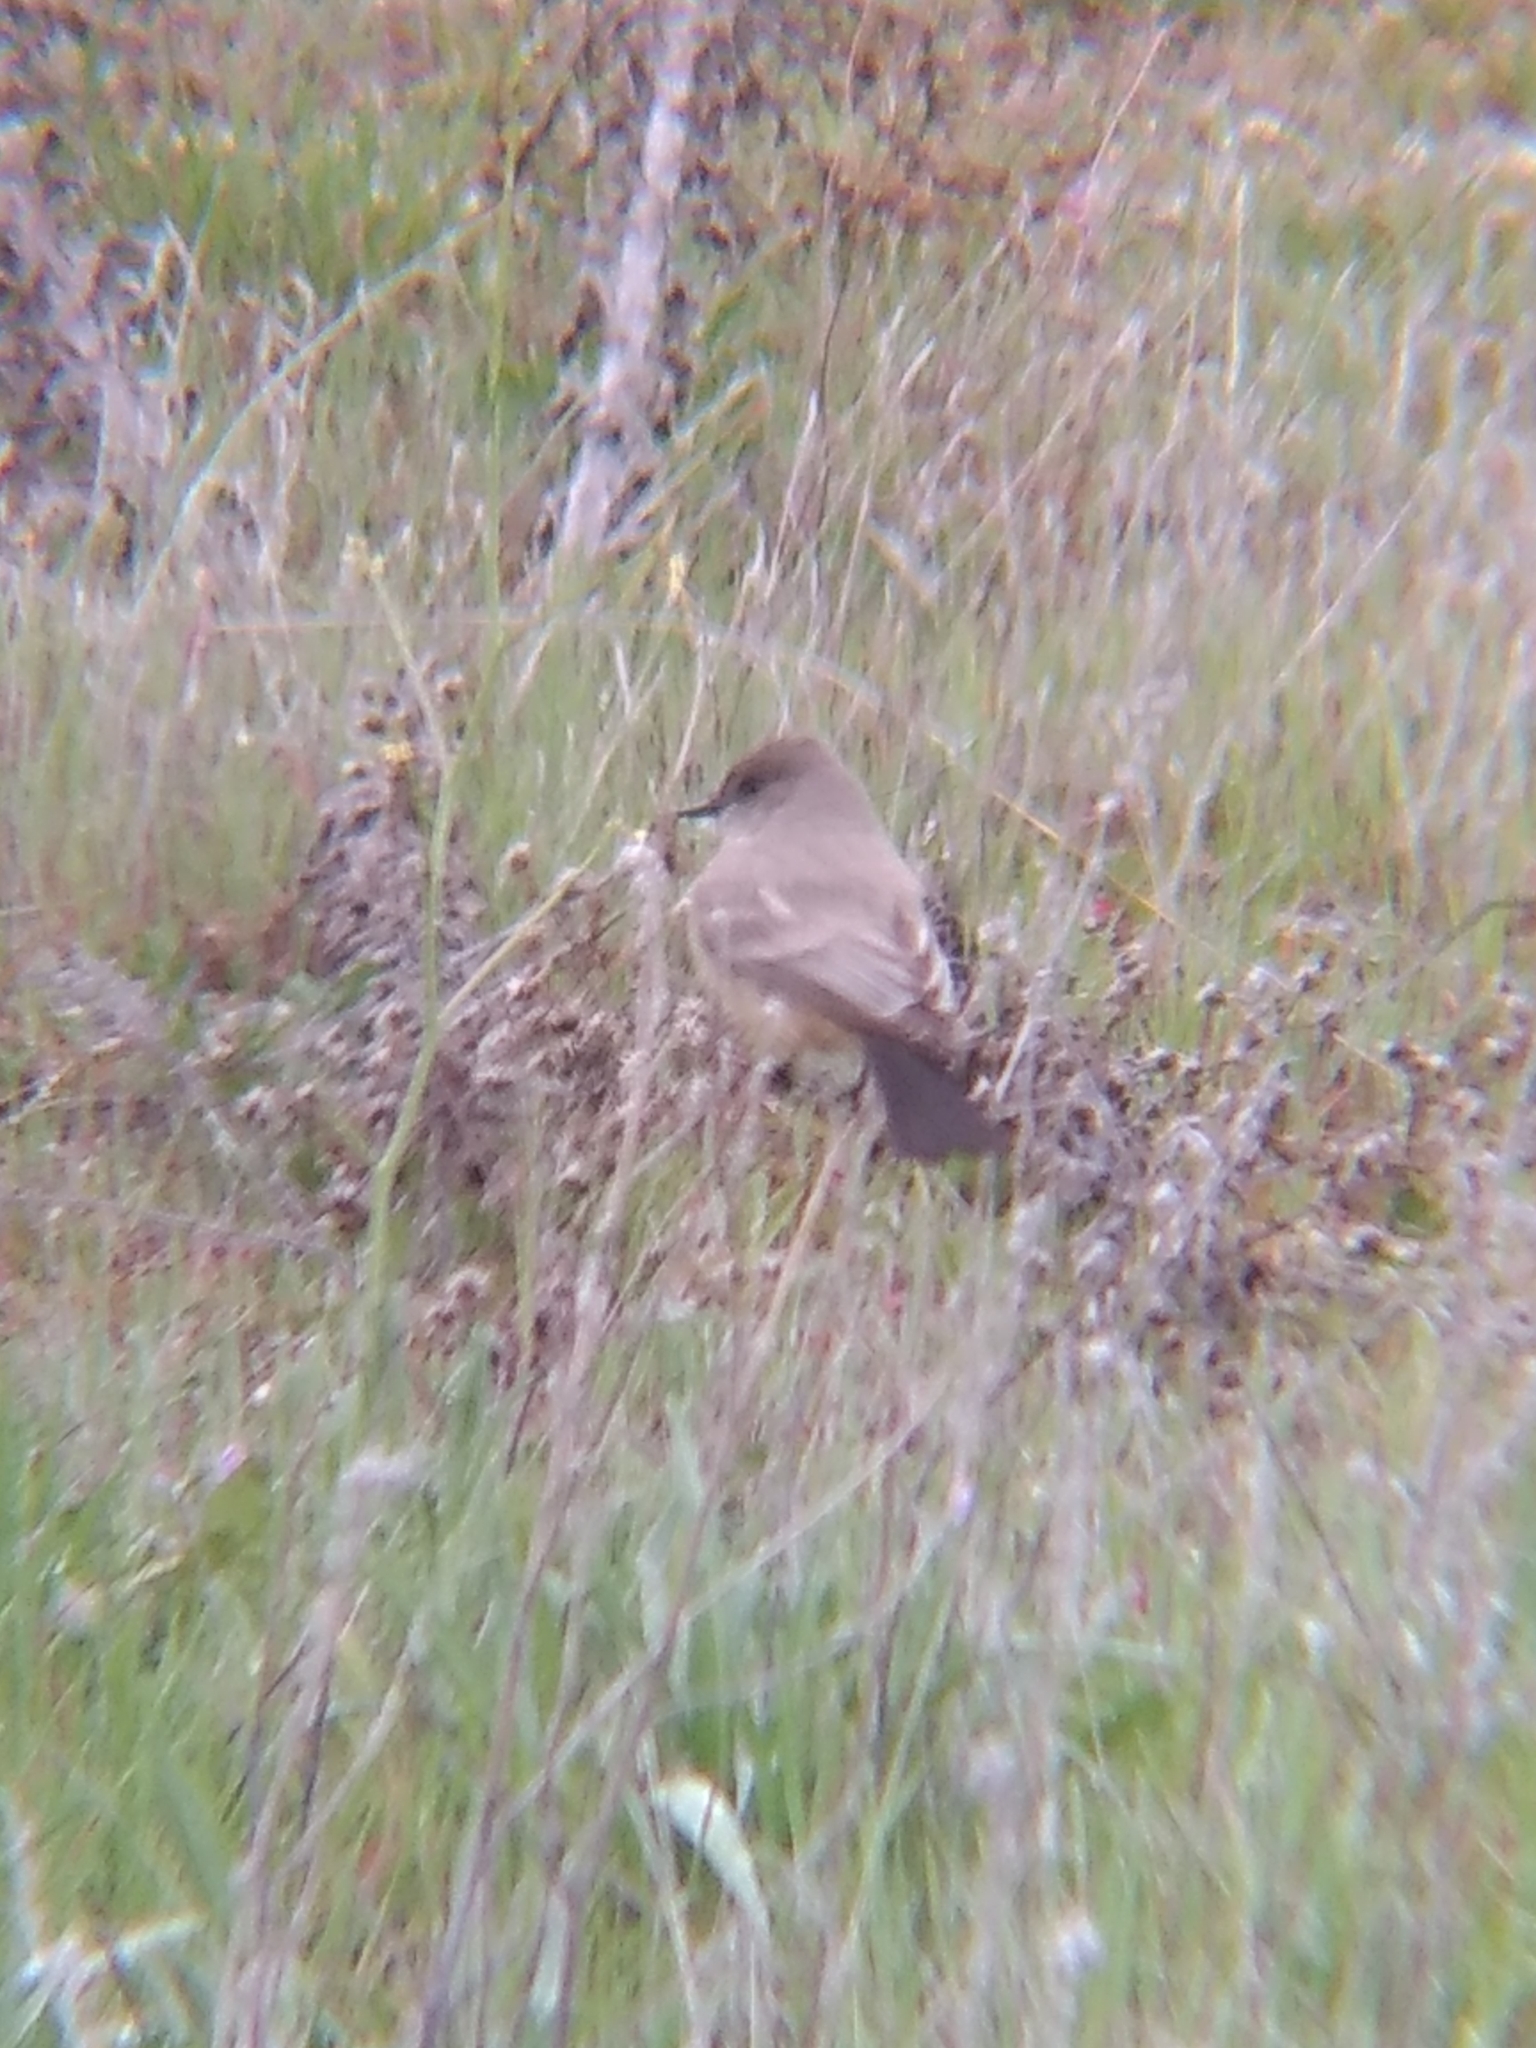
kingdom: Animalia
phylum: Chordata
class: Aves
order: Passeriformes
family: Tyrannidae
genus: Sayornis
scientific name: Sayornis saya
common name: Say's phoebe
